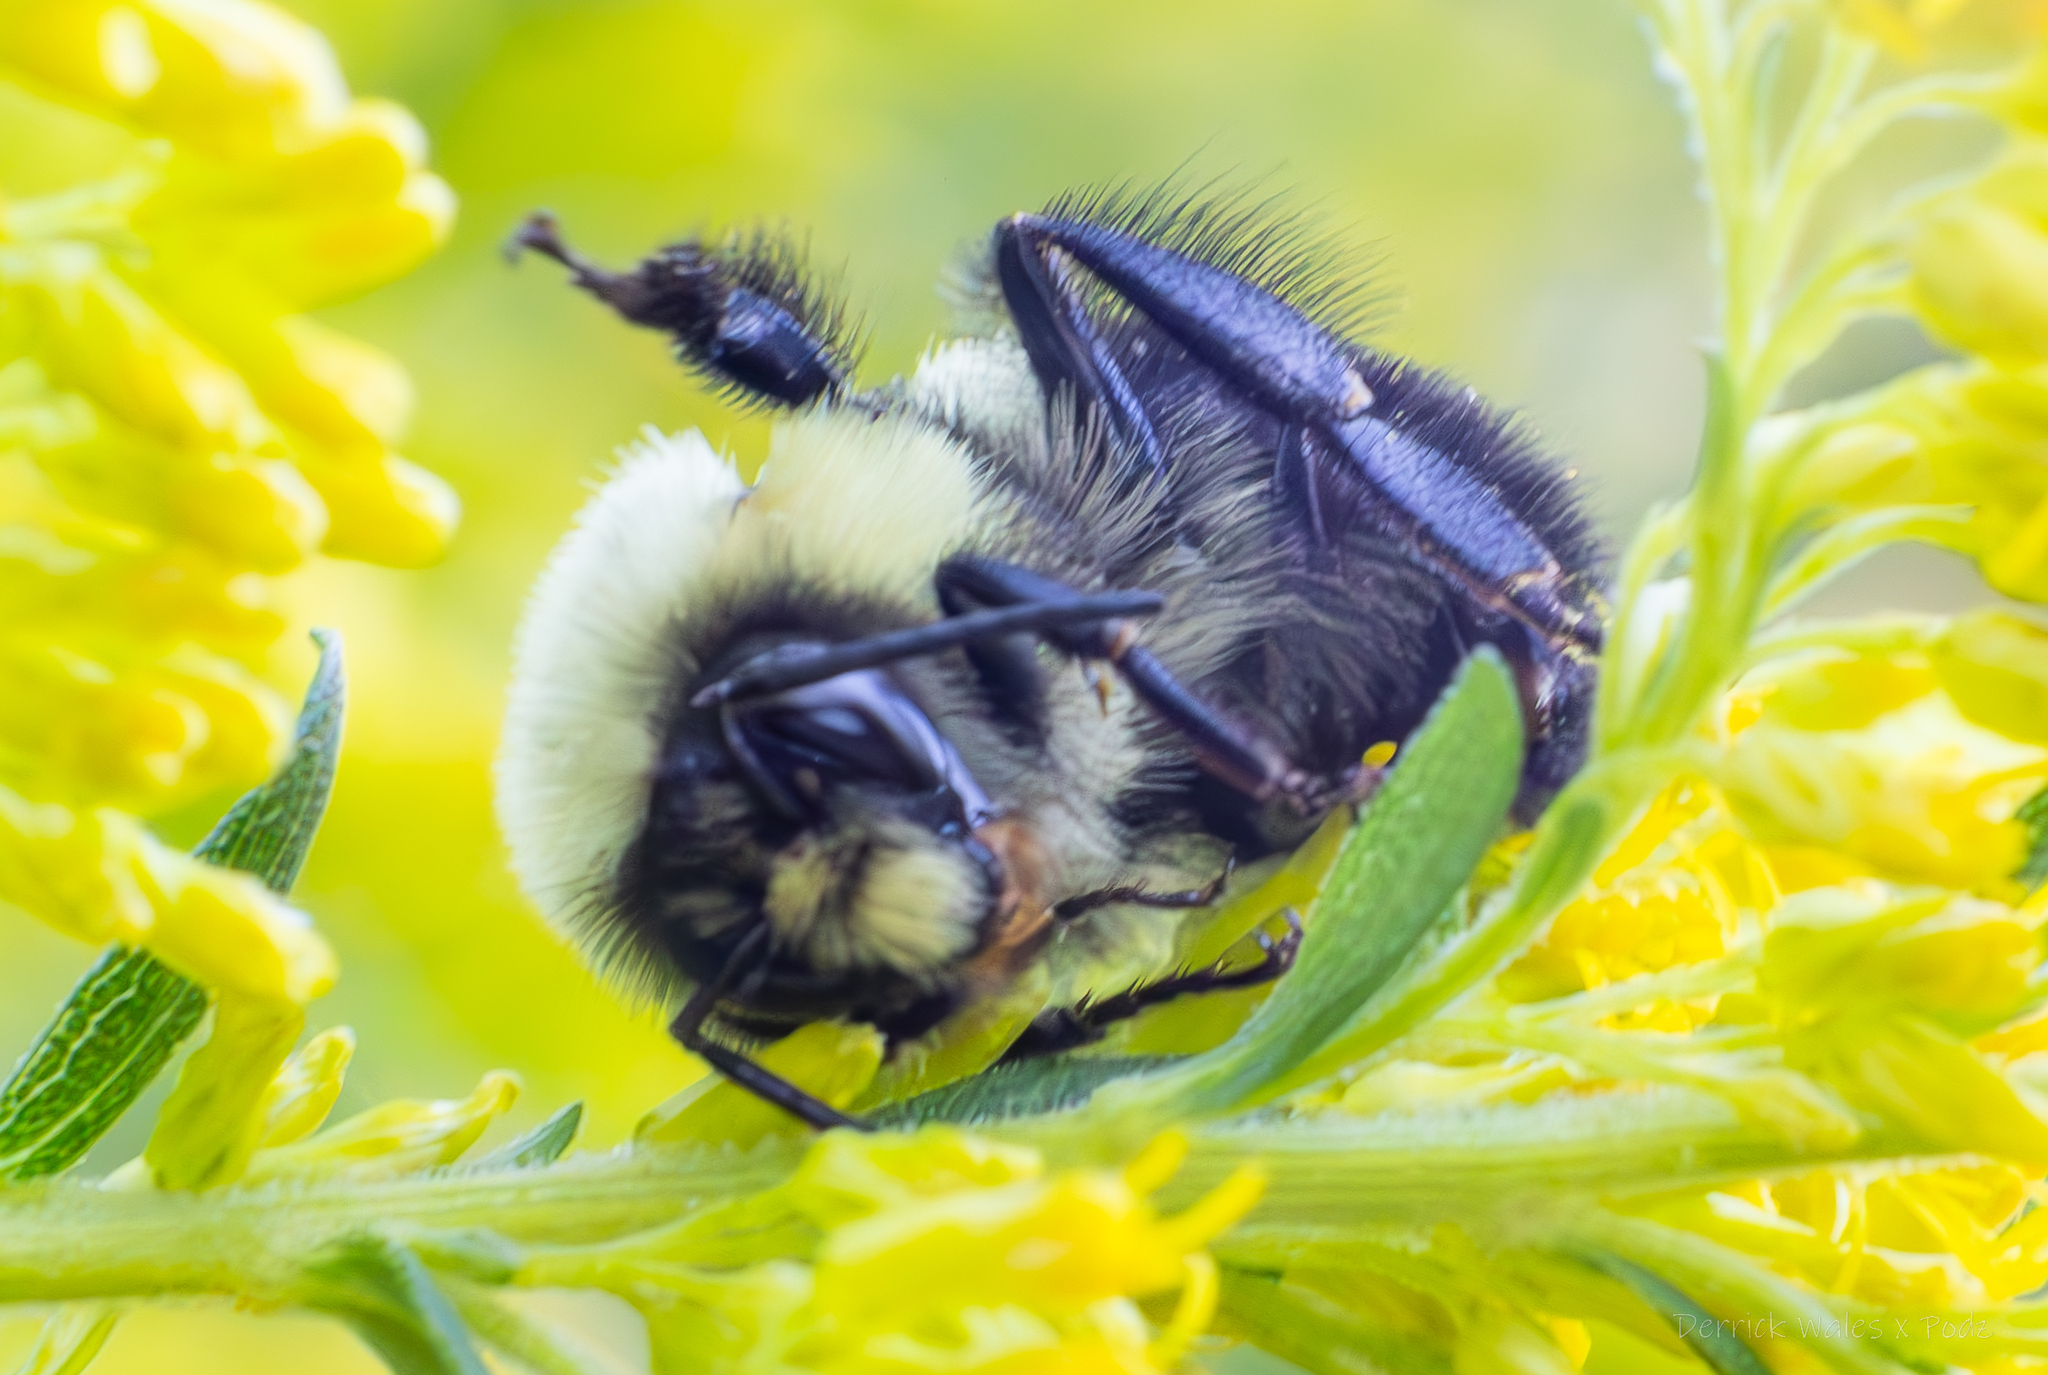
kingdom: Animalia
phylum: Arthropoda
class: Insecta
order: Hymenoptera
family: Apidae
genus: Bombus
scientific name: Bombus impatiens
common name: Common eastern bumble bee
